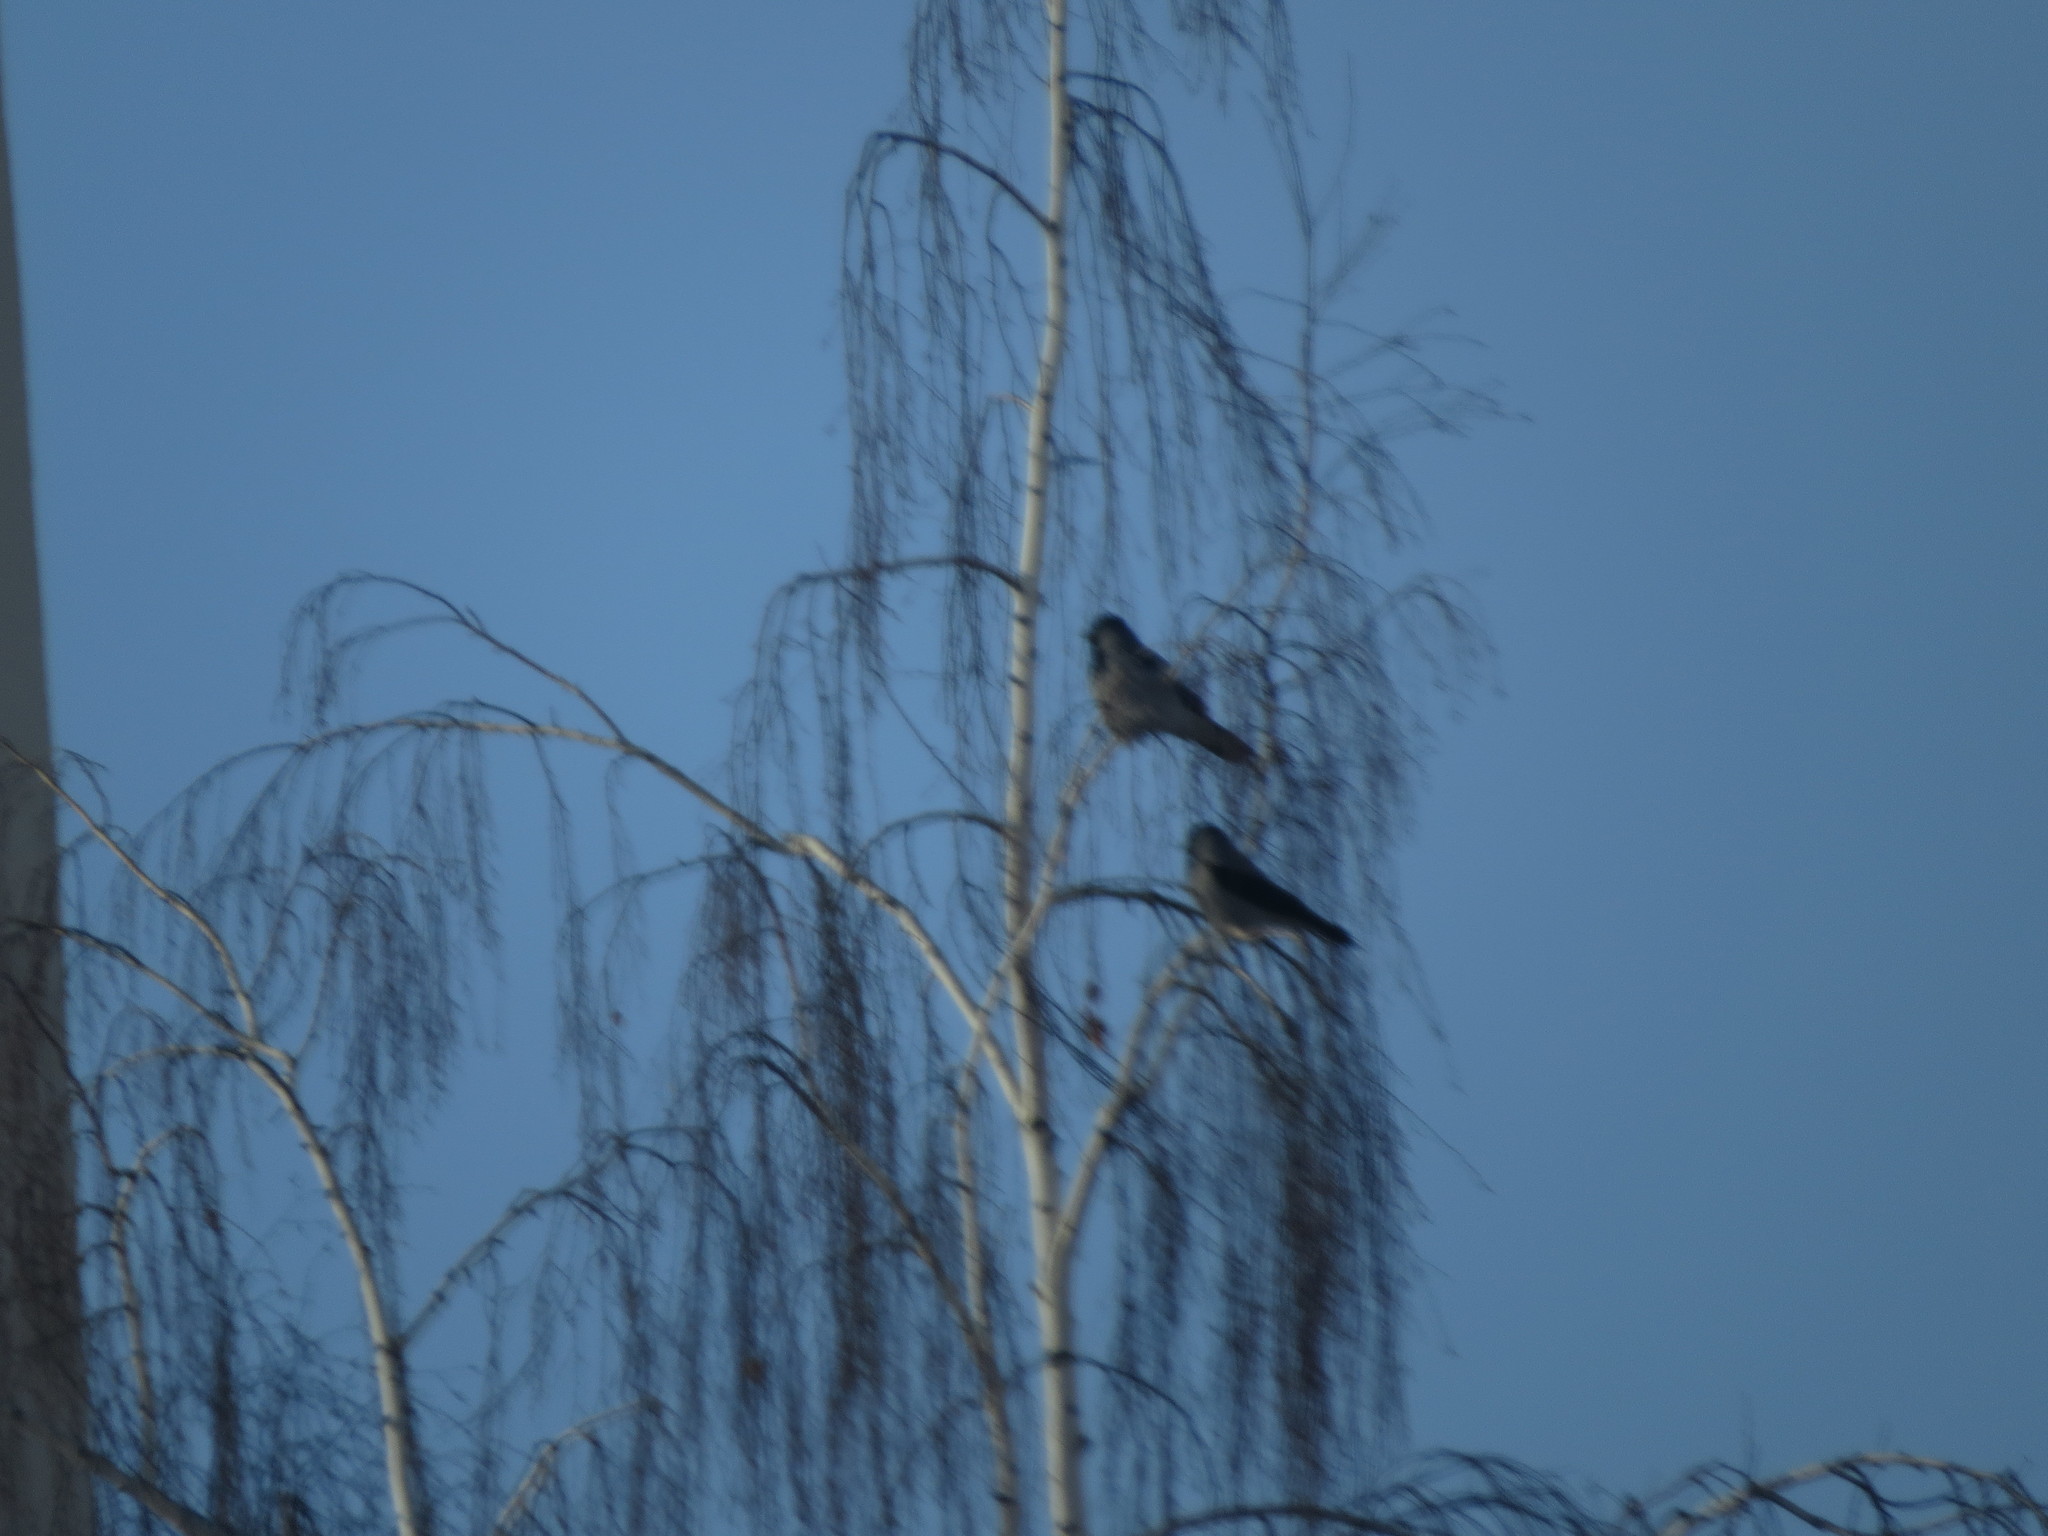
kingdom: Animalia
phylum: Chordata
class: Aves
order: Passeriformes
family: Corvidae
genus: Corvus
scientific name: Corvus cornix
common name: Hooded crow
